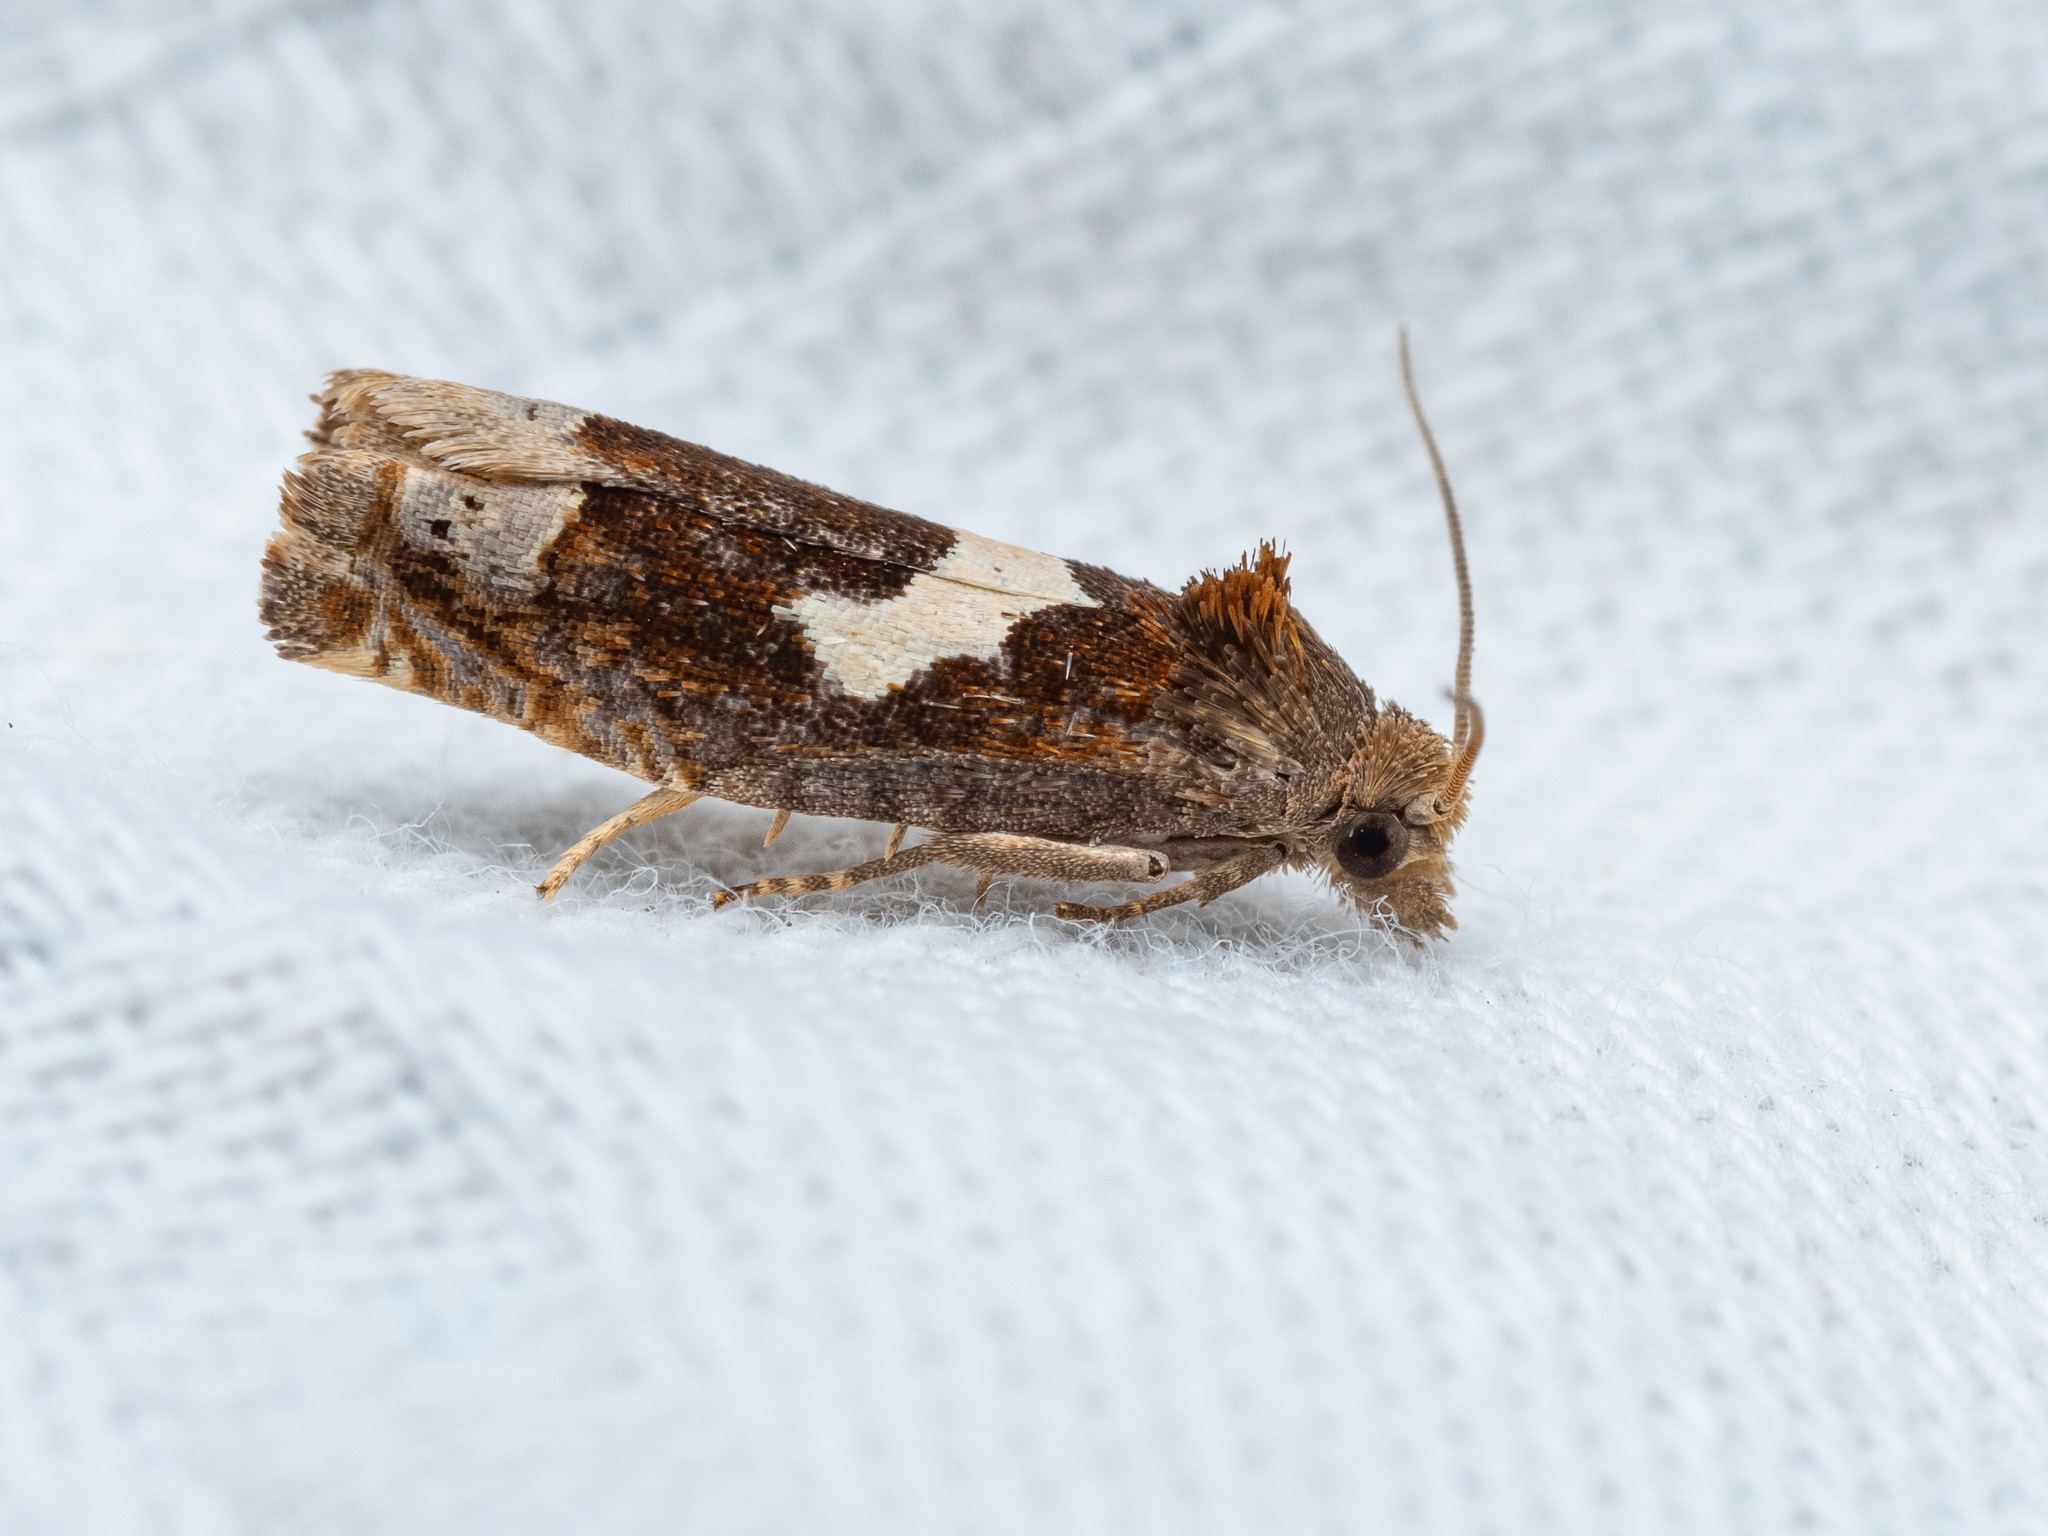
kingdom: Animalia
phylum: Arthropoda
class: Insecta
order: Lepidoptera
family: Tortricidae
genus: Epiblema
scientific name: Epiblema foenella
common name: White-foot bell
